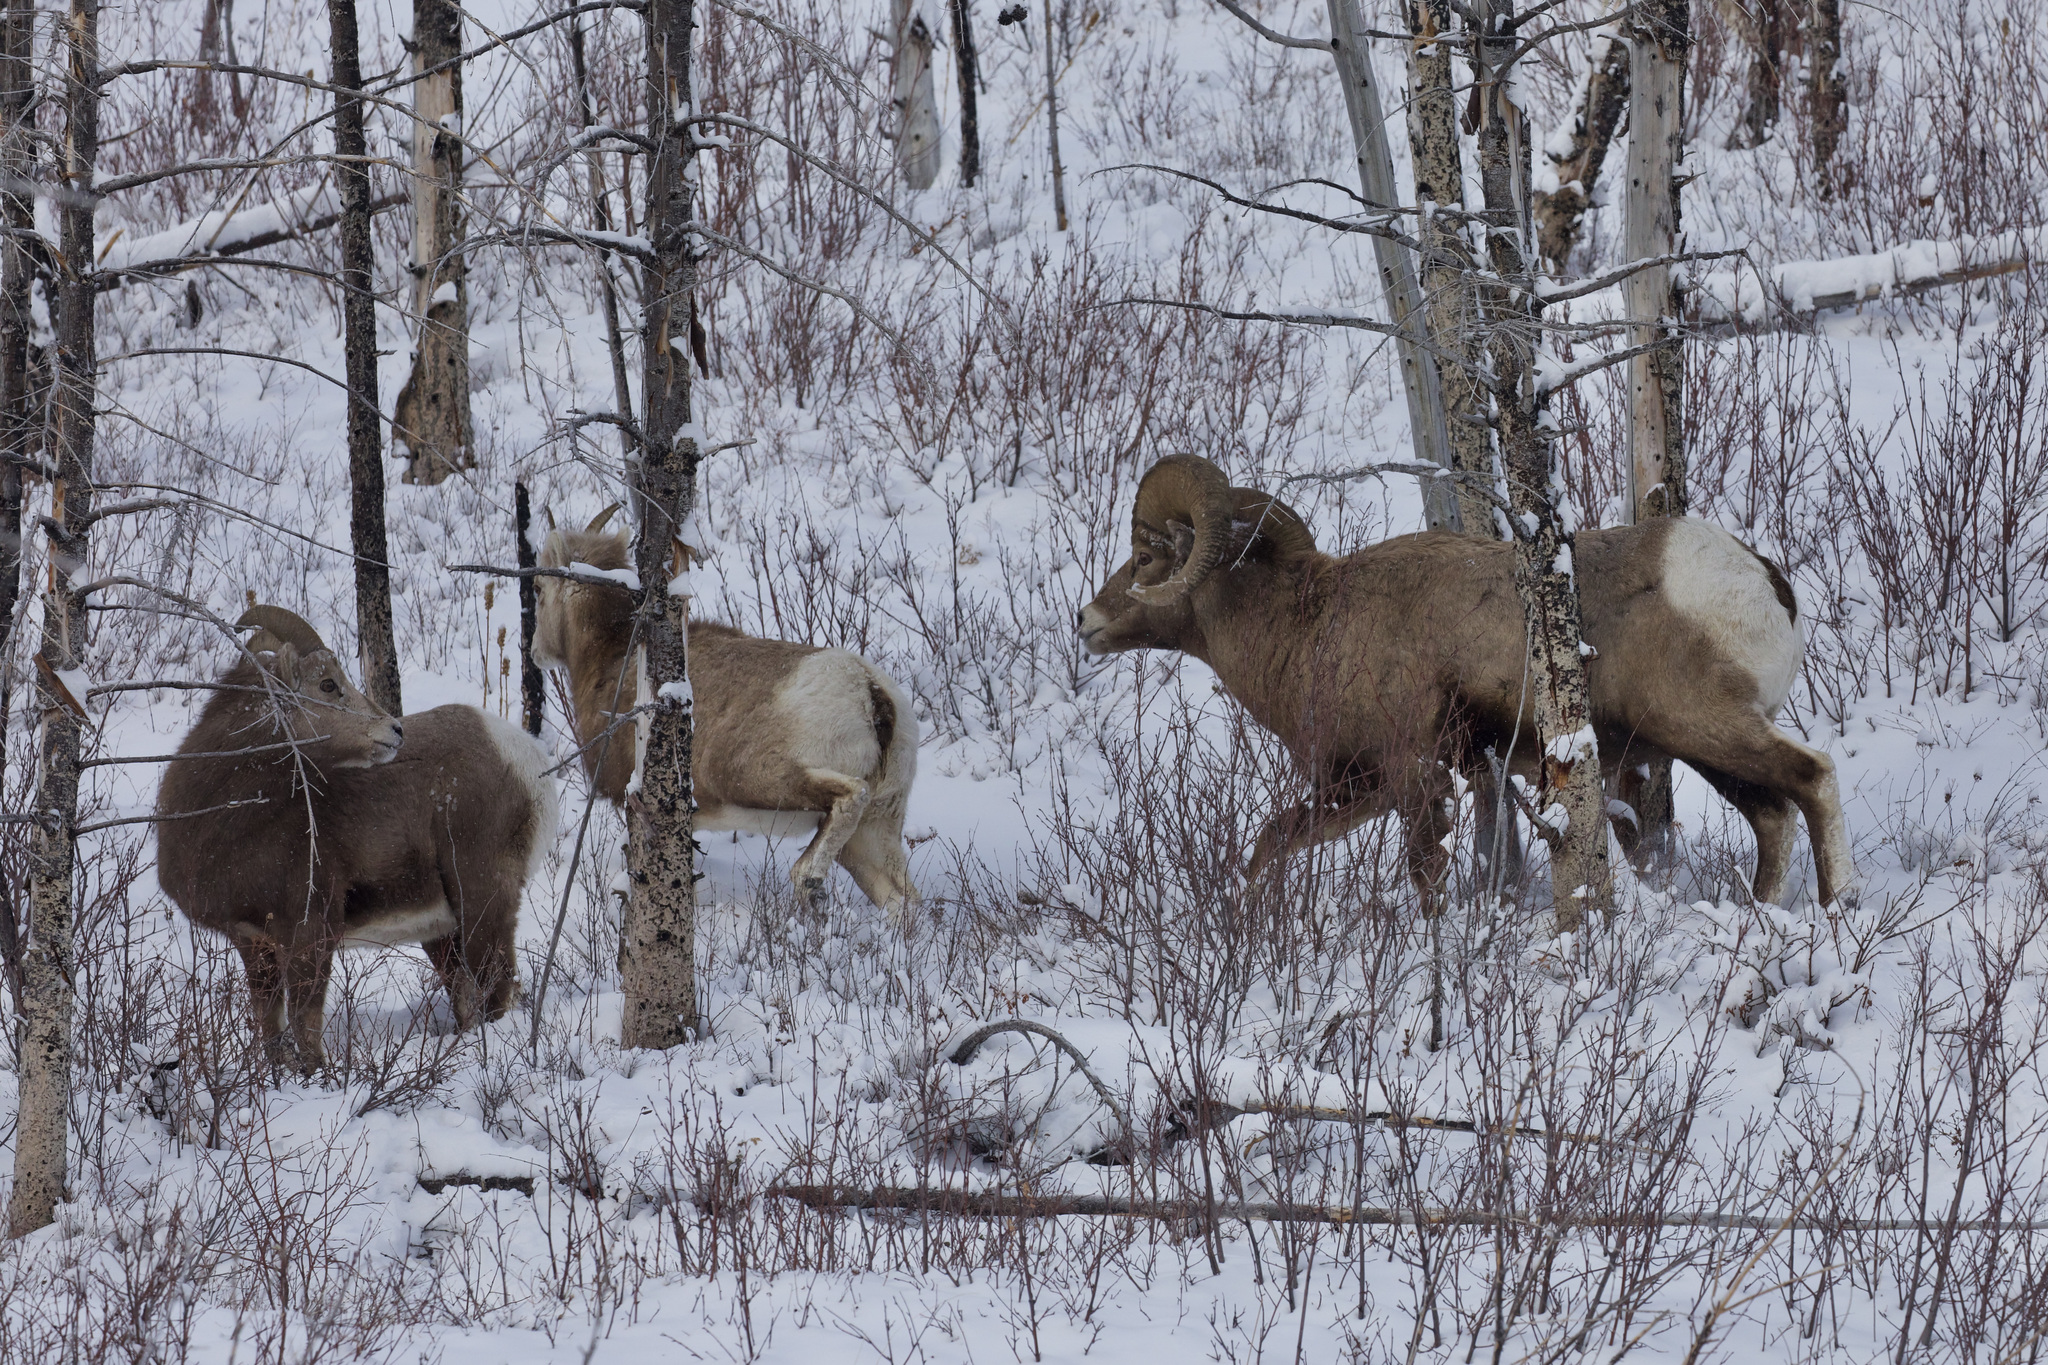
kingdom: Animalia
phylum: Chordata
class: Mammalia
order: Artiodactyla
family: Bovidae
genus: Ovis
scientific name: Ovis canadensis
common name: Bighorn sheep
